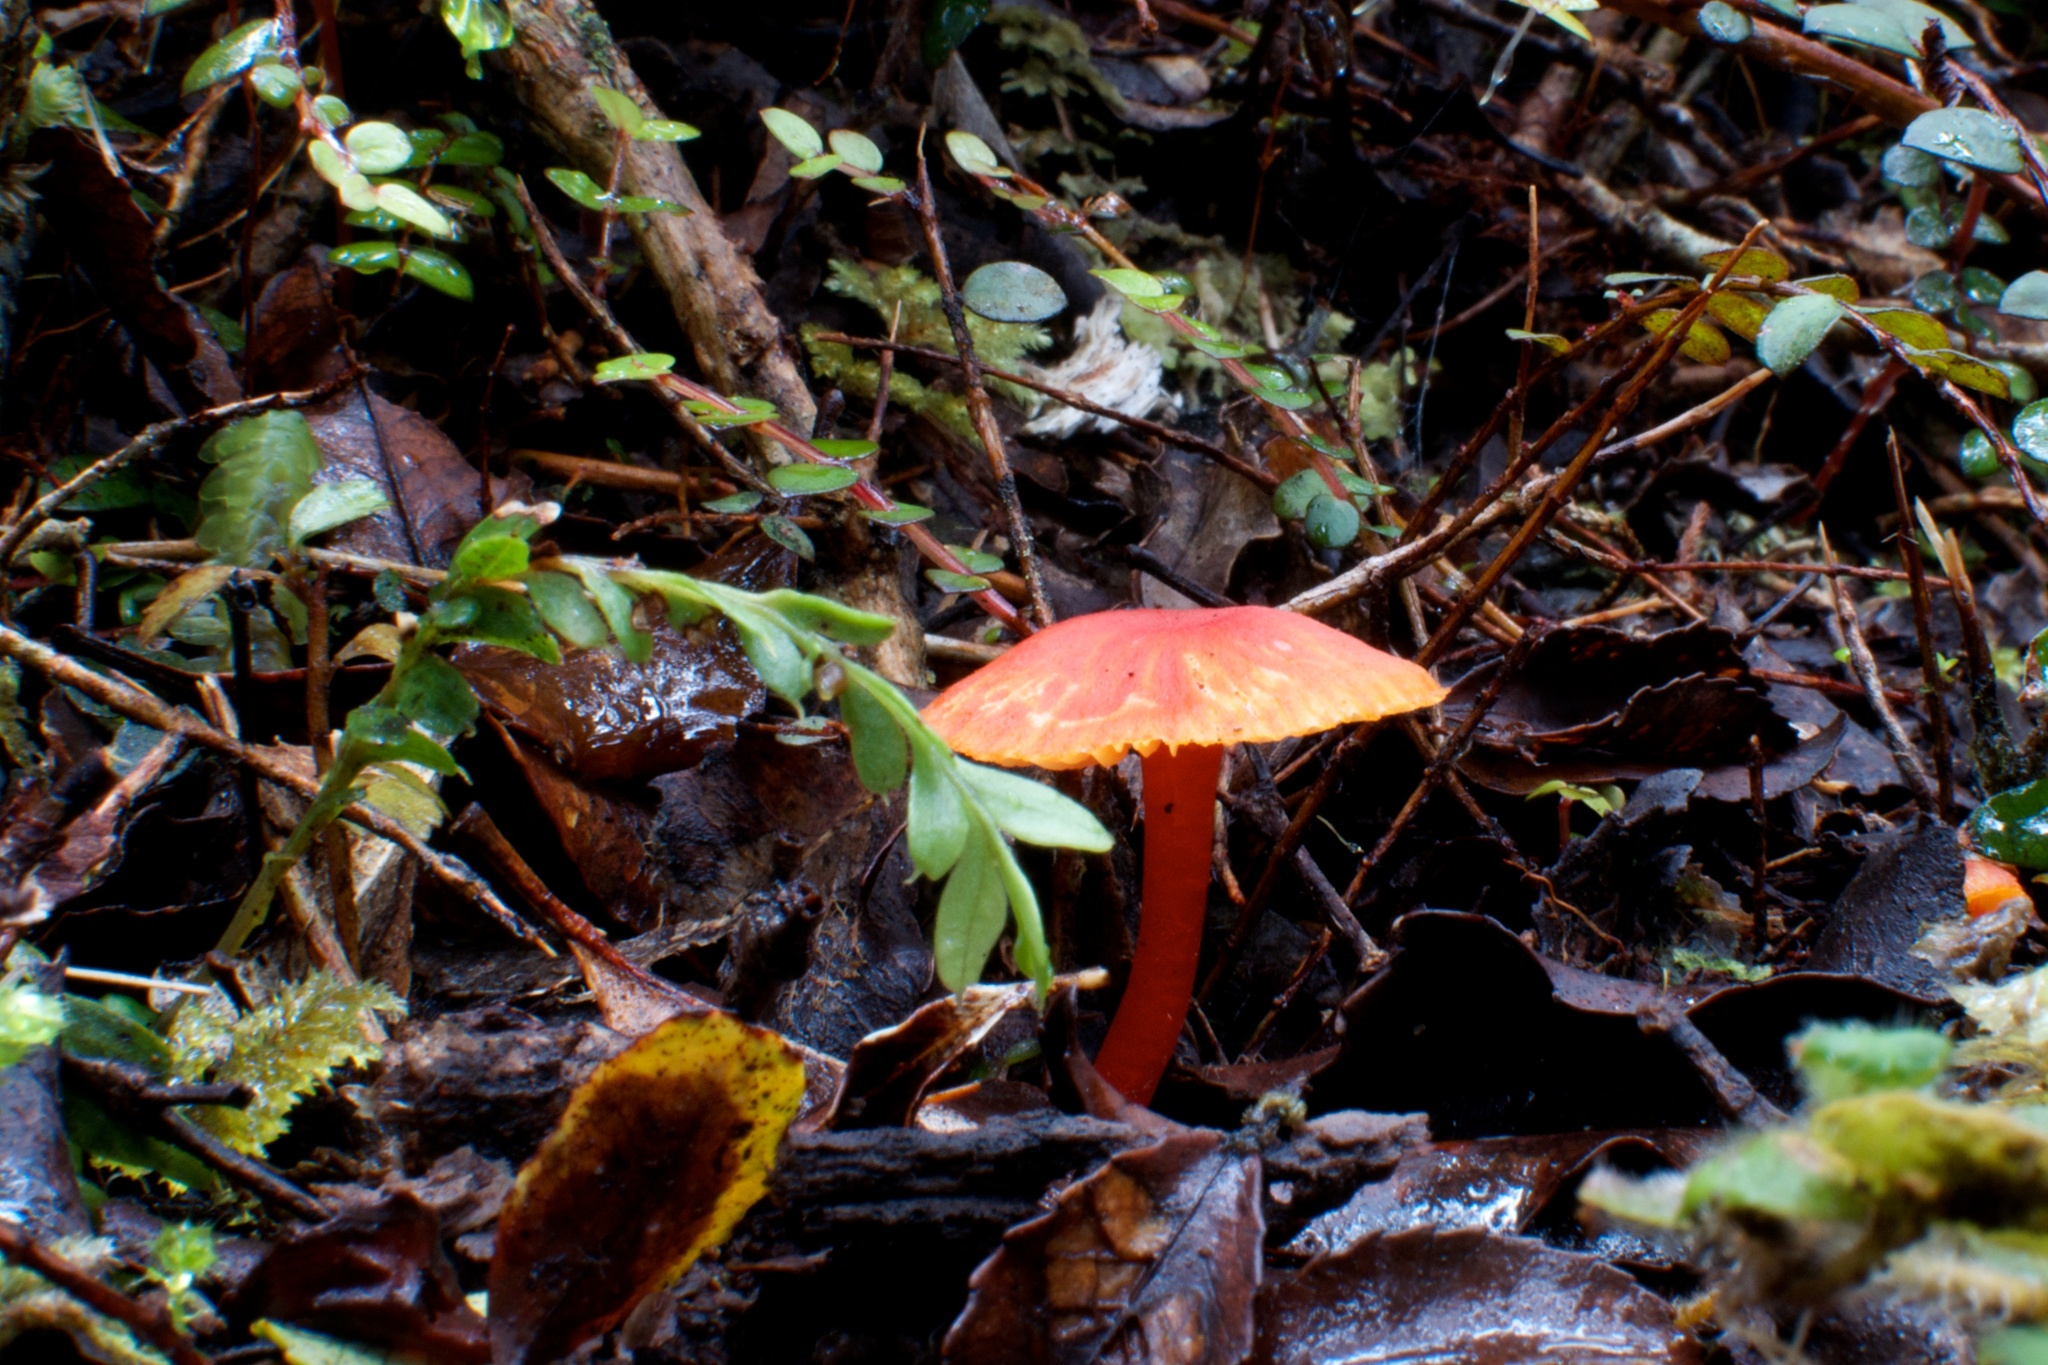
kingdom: Plantae
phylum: Tracheophyta
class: Polypodiopsida
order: Psilotales
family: Psilotaceae
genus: Tmesipteris
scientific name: Tmesipteris tannensis
